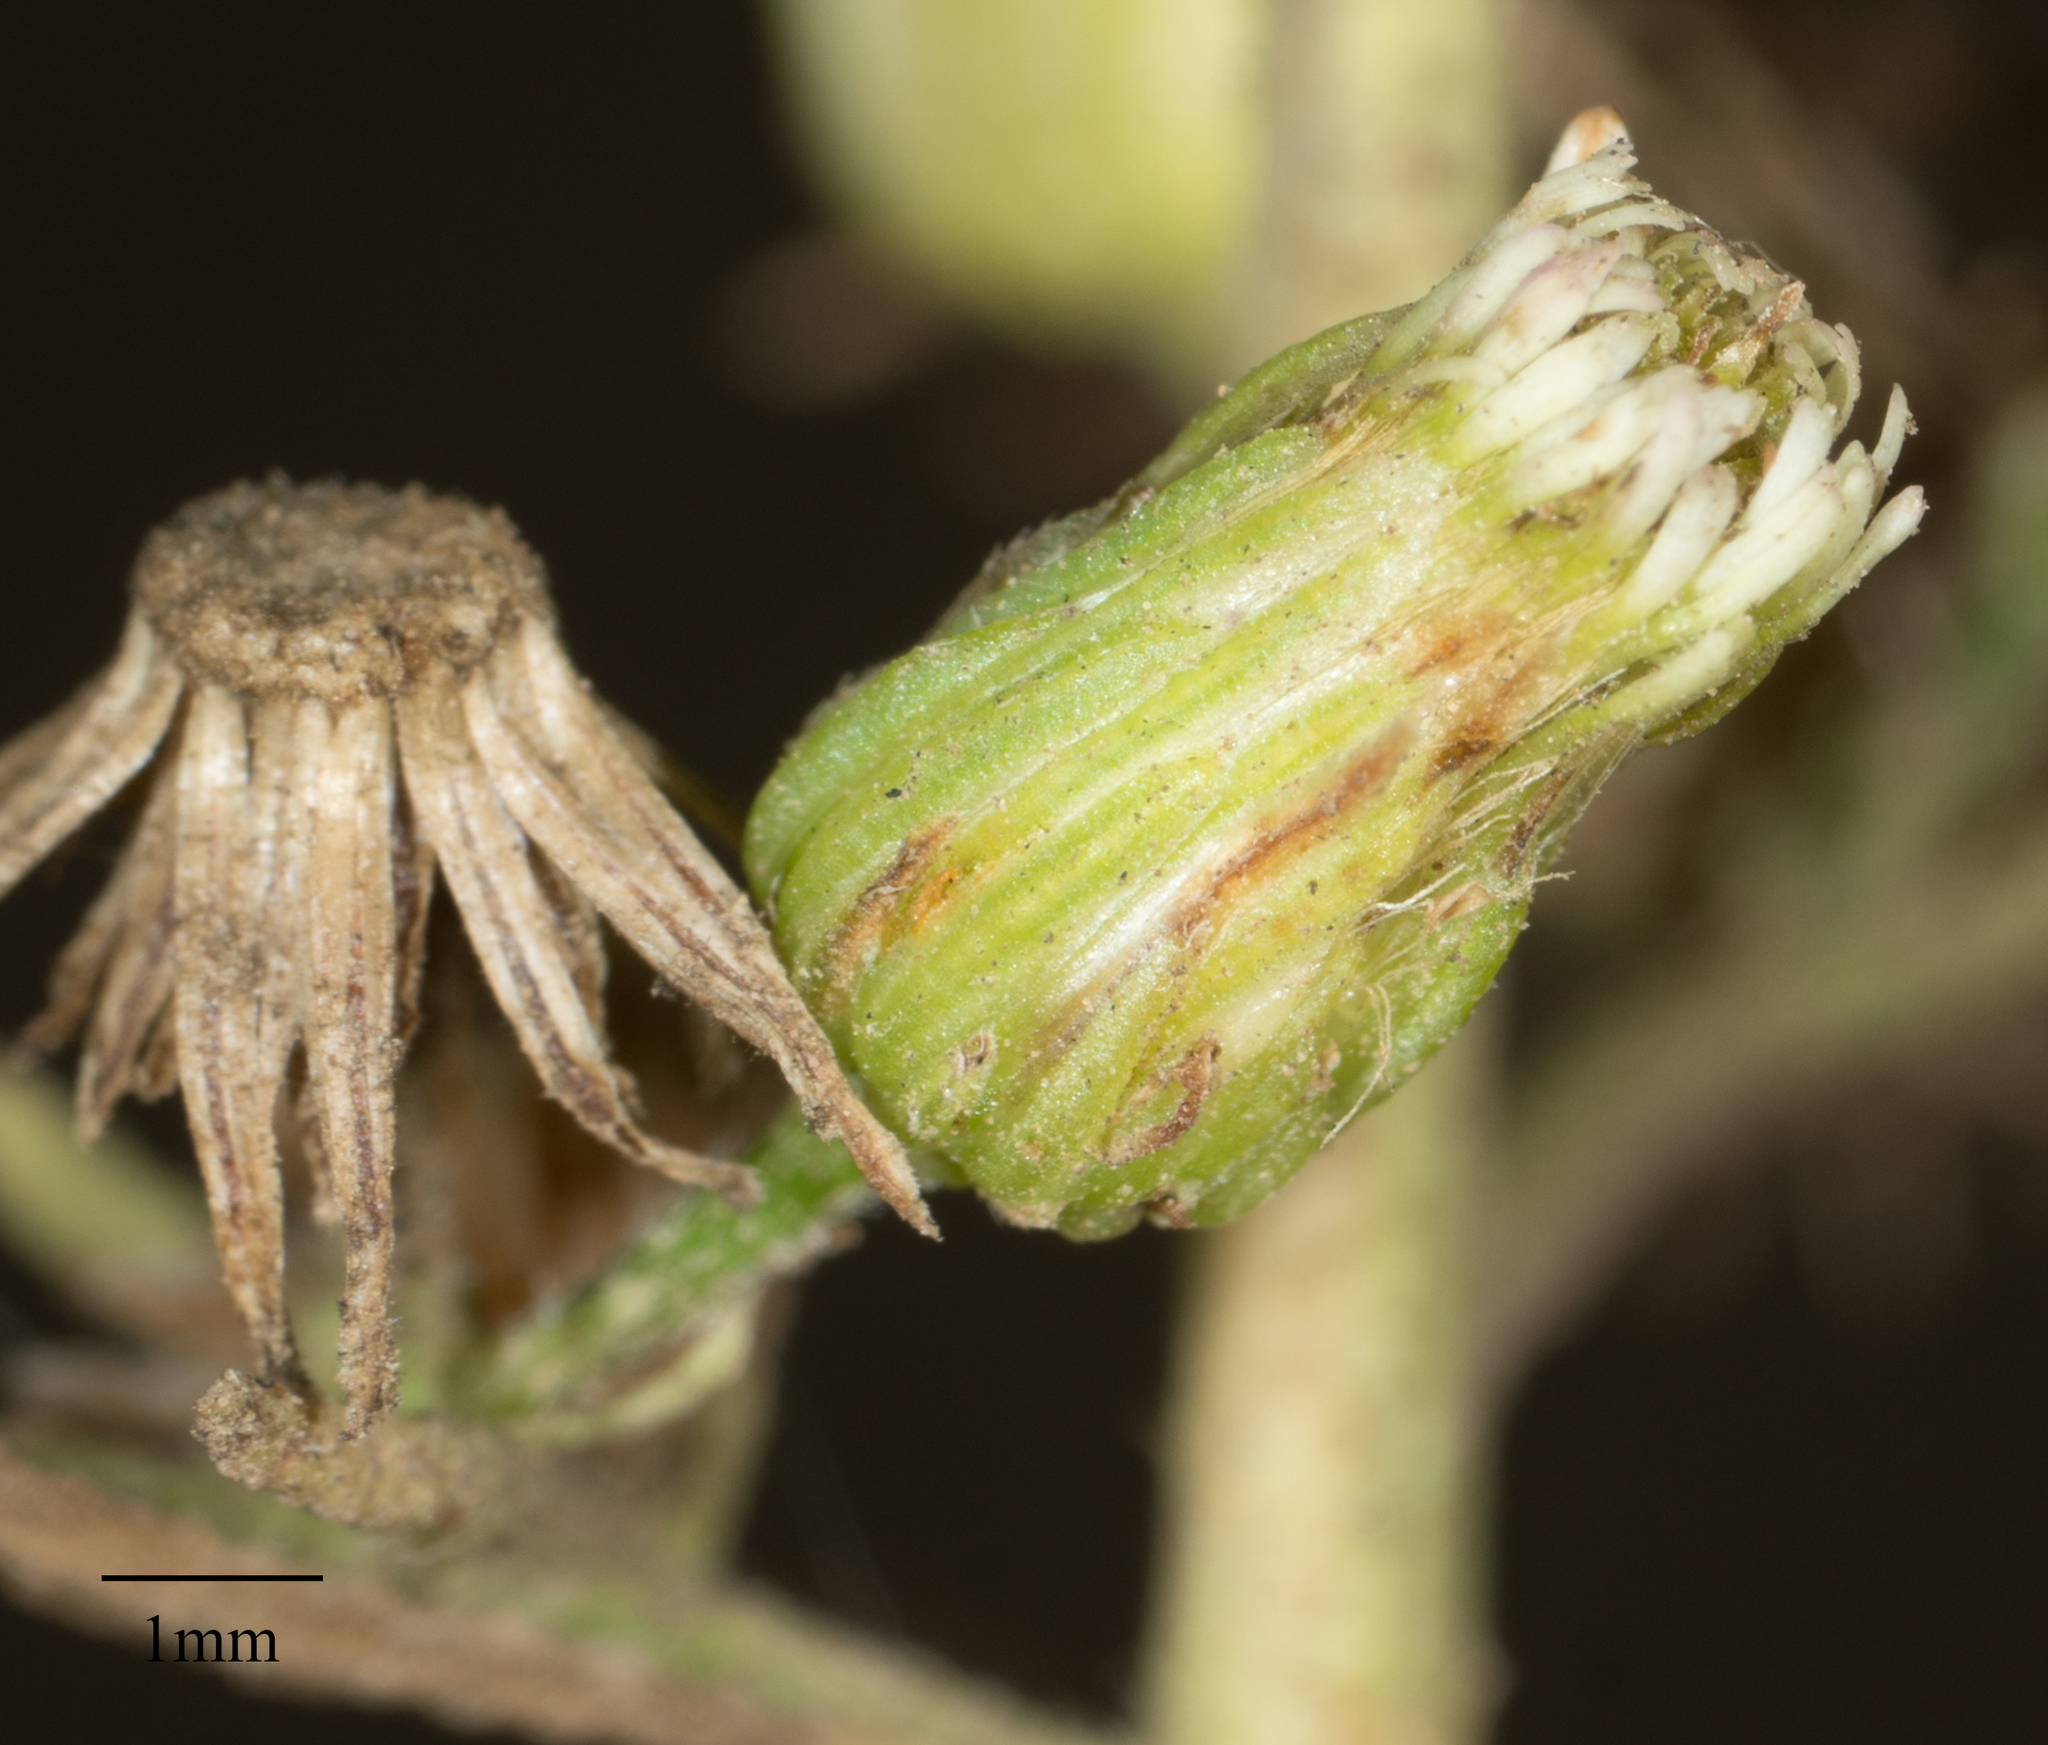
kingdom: Plantae
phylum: Tracheophyta
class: Magnoliopsida
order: Asterales
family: Asteraceae
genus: Erigeron
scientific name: Erigeron canadensis
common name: Canadian fleabane
